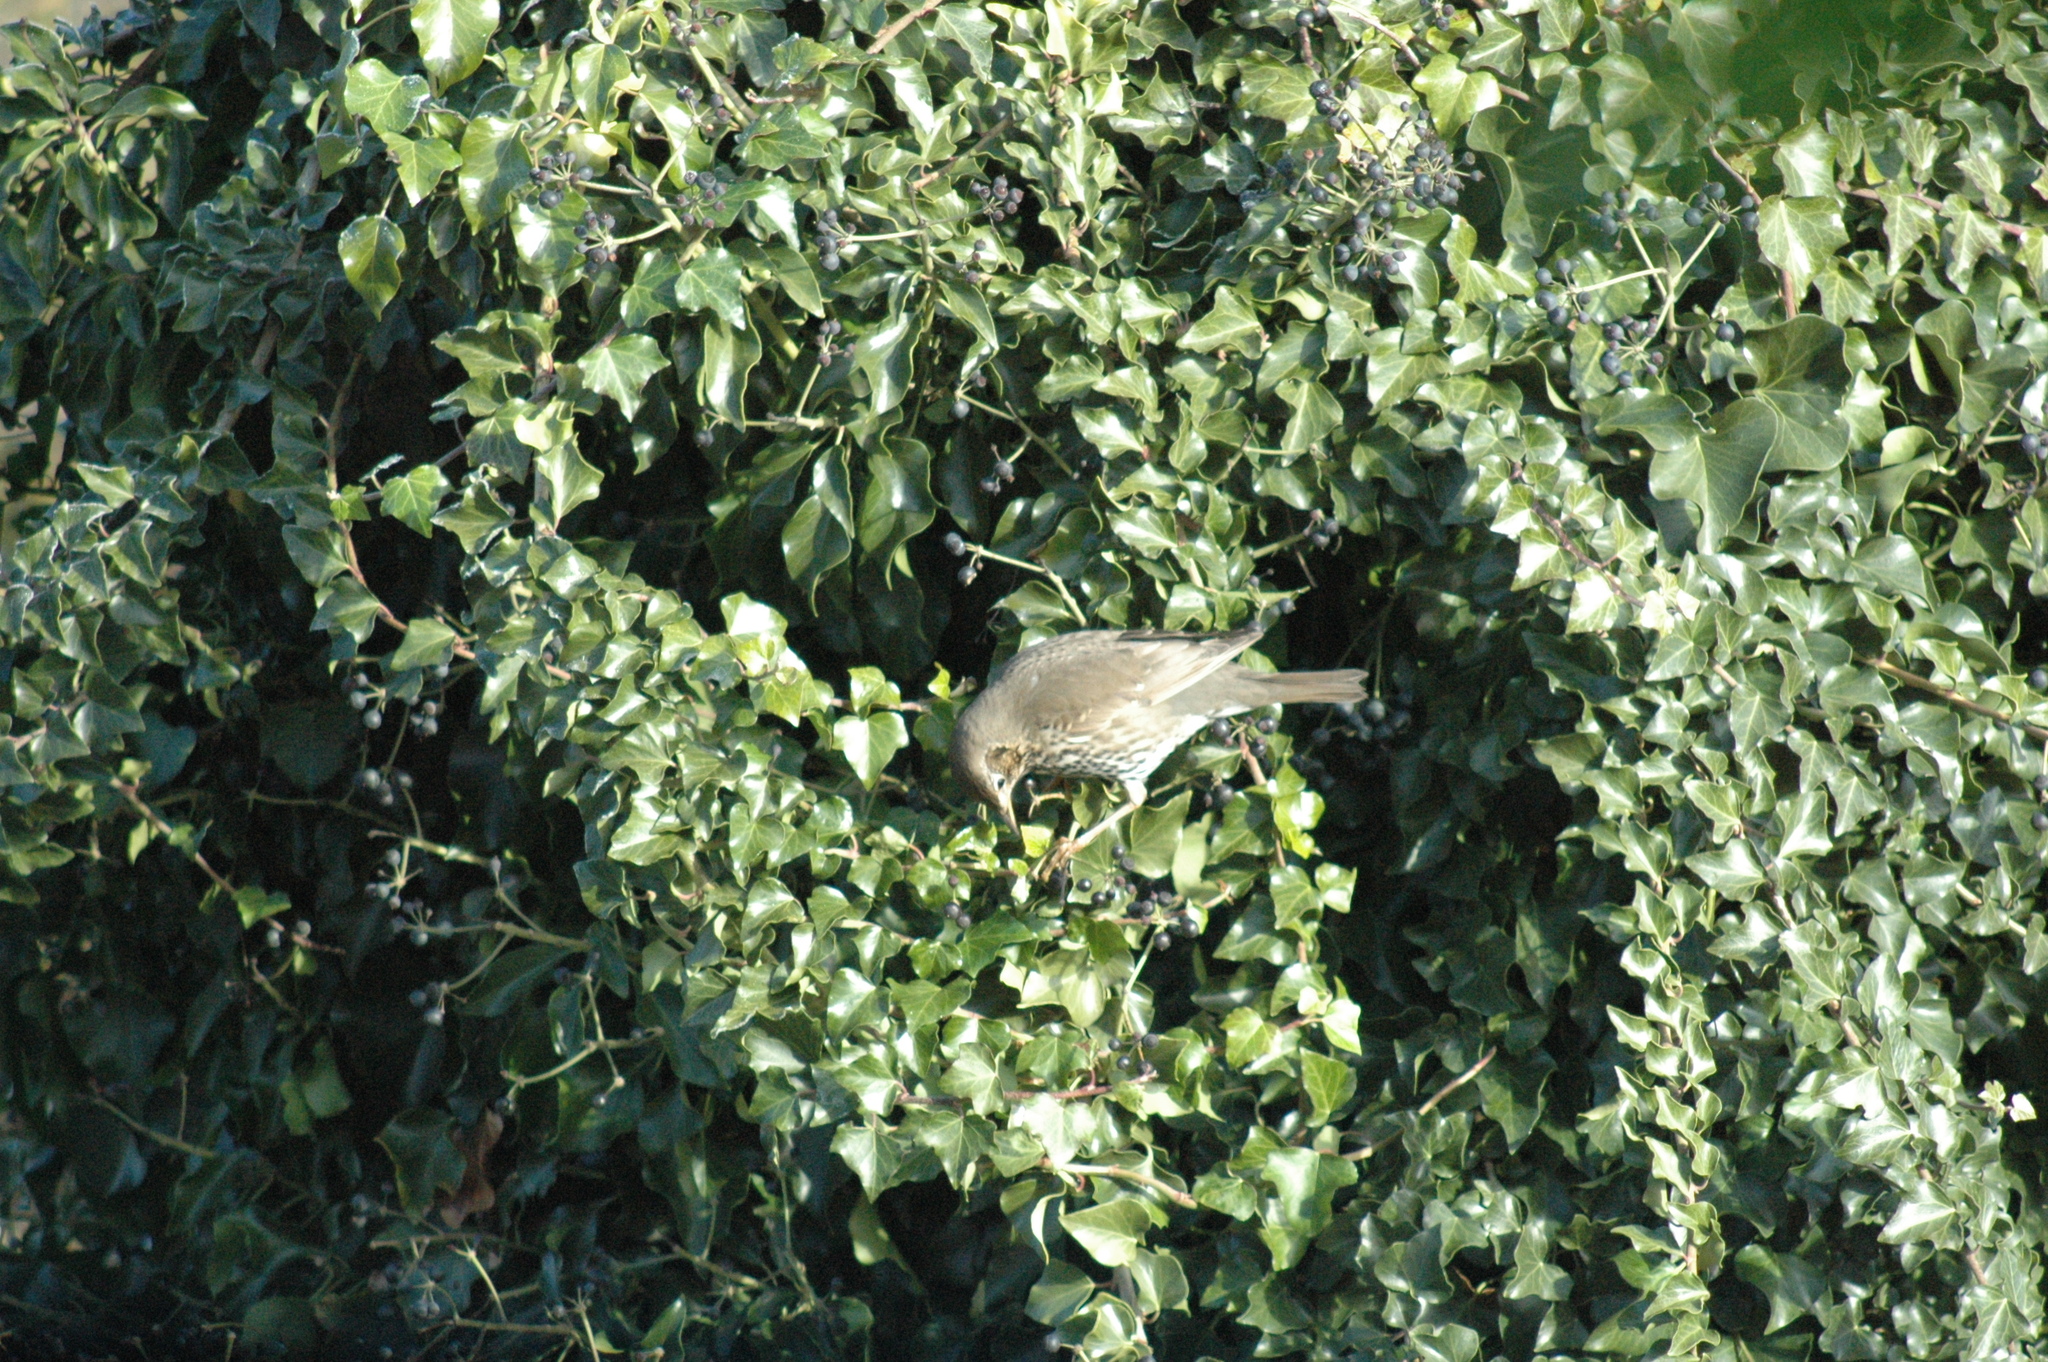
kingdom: Animalia
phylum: Chordata
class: Aves
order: Passeriformes
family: Turdidae
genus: Turdus
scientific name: Turdus philomelos
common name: Song thrush
